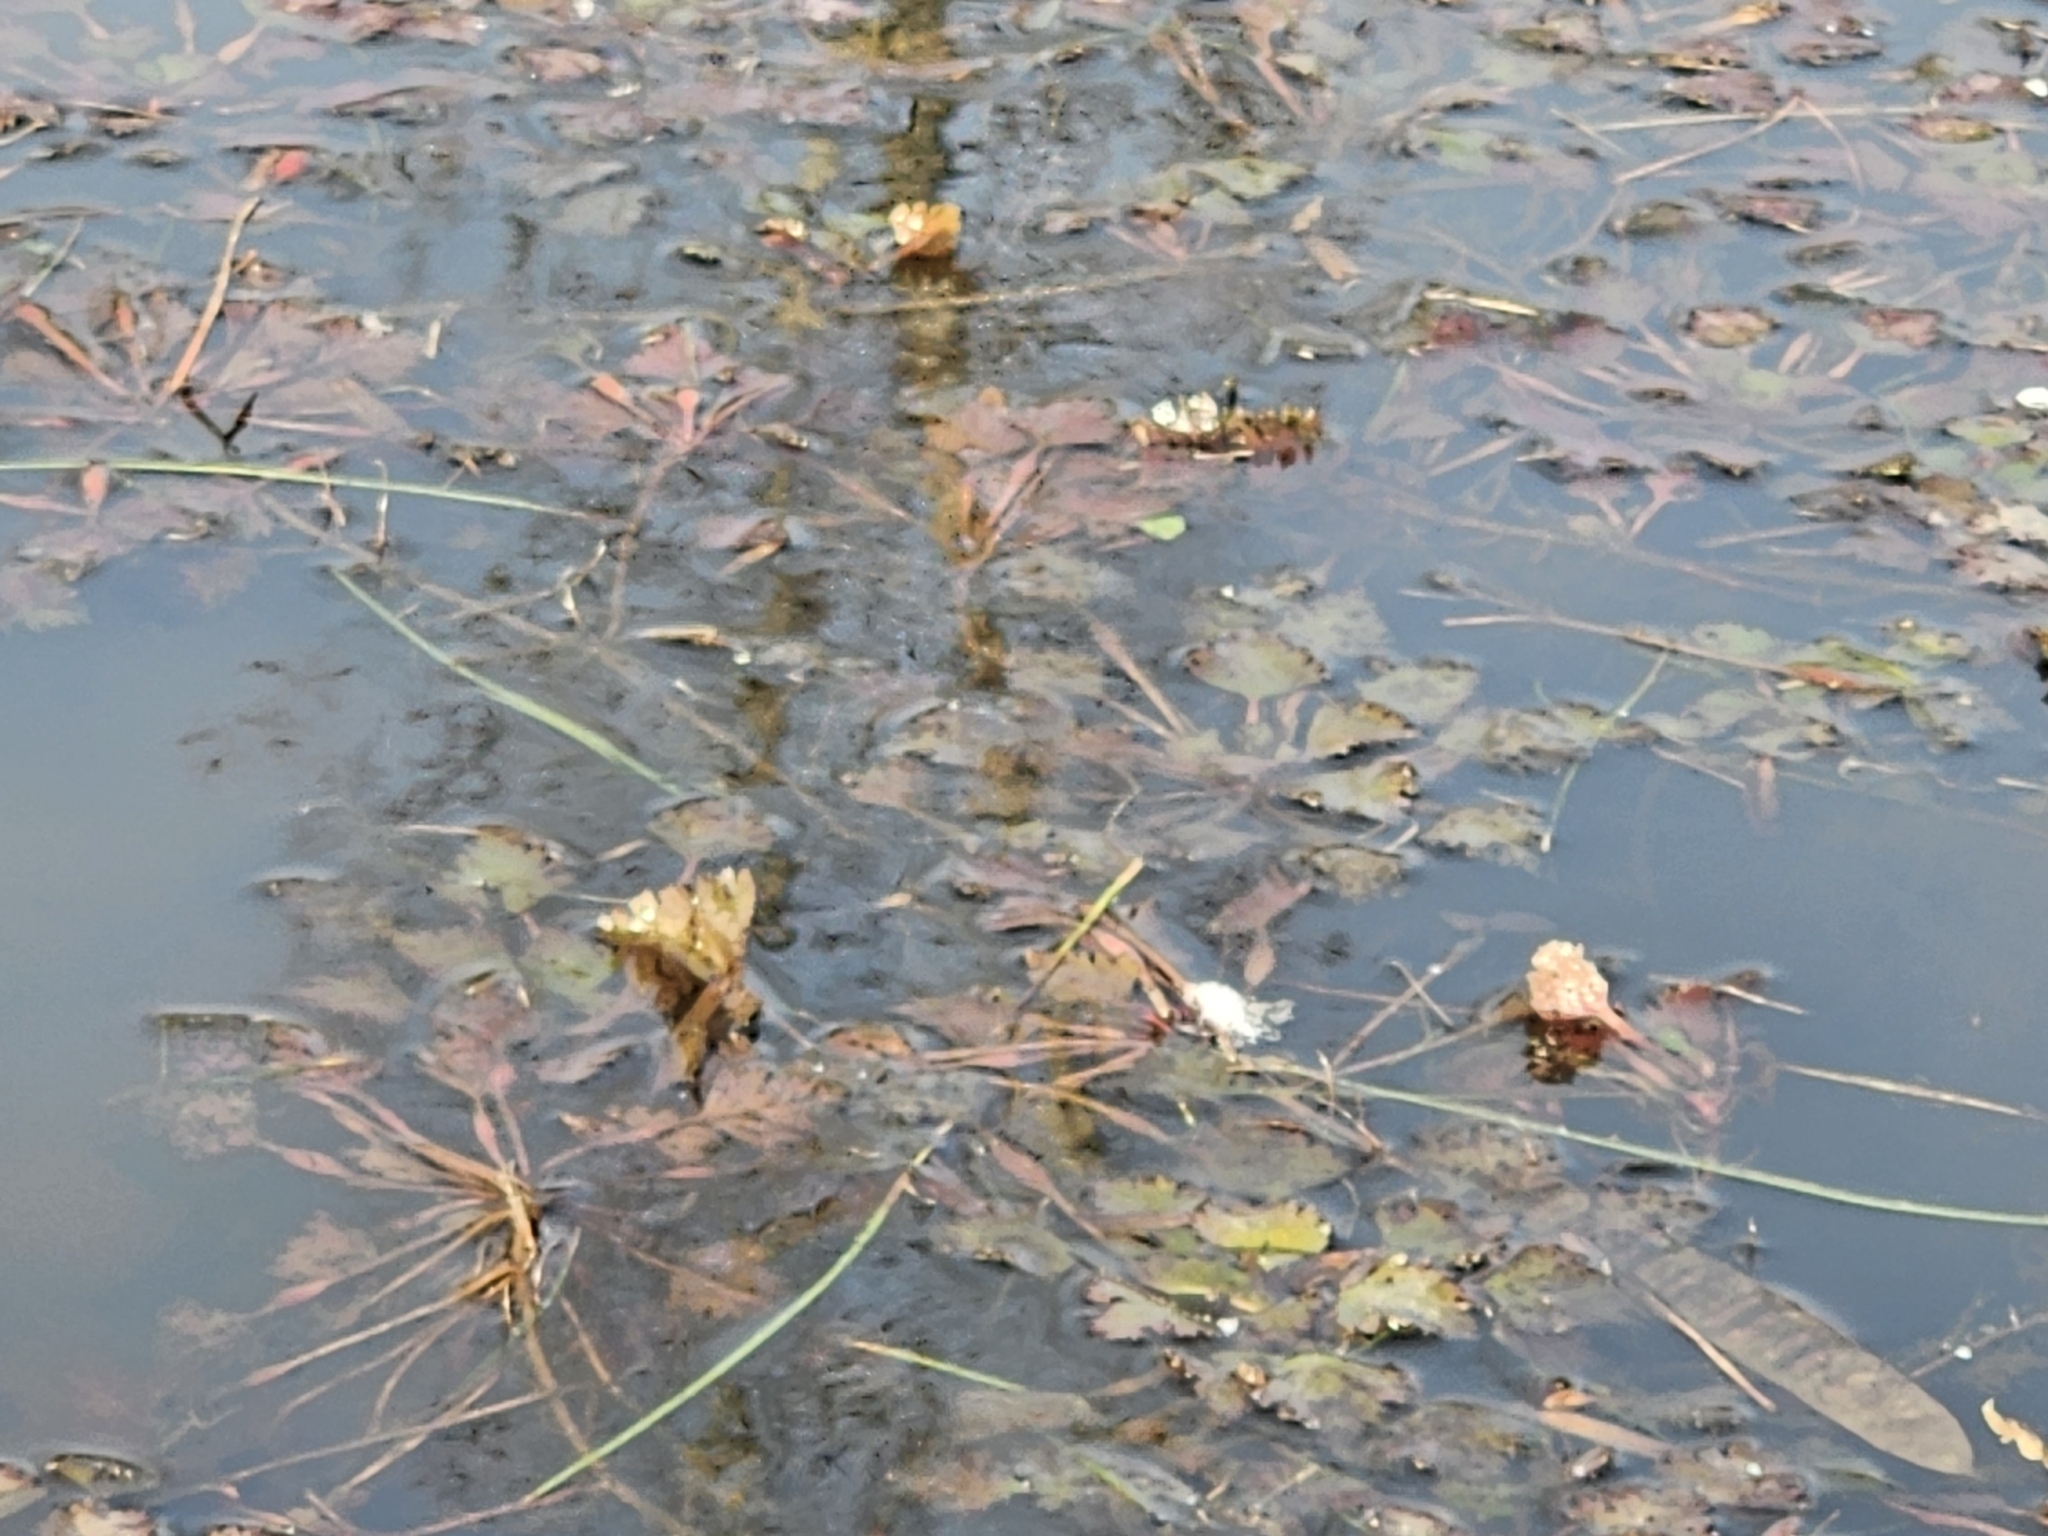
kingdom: Plantae
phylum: Tracheophyta
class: Magnoliopsida
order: Myrtales
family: Lythraceae
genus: Trapa
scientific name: Trapa natans
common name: Water chestnut
